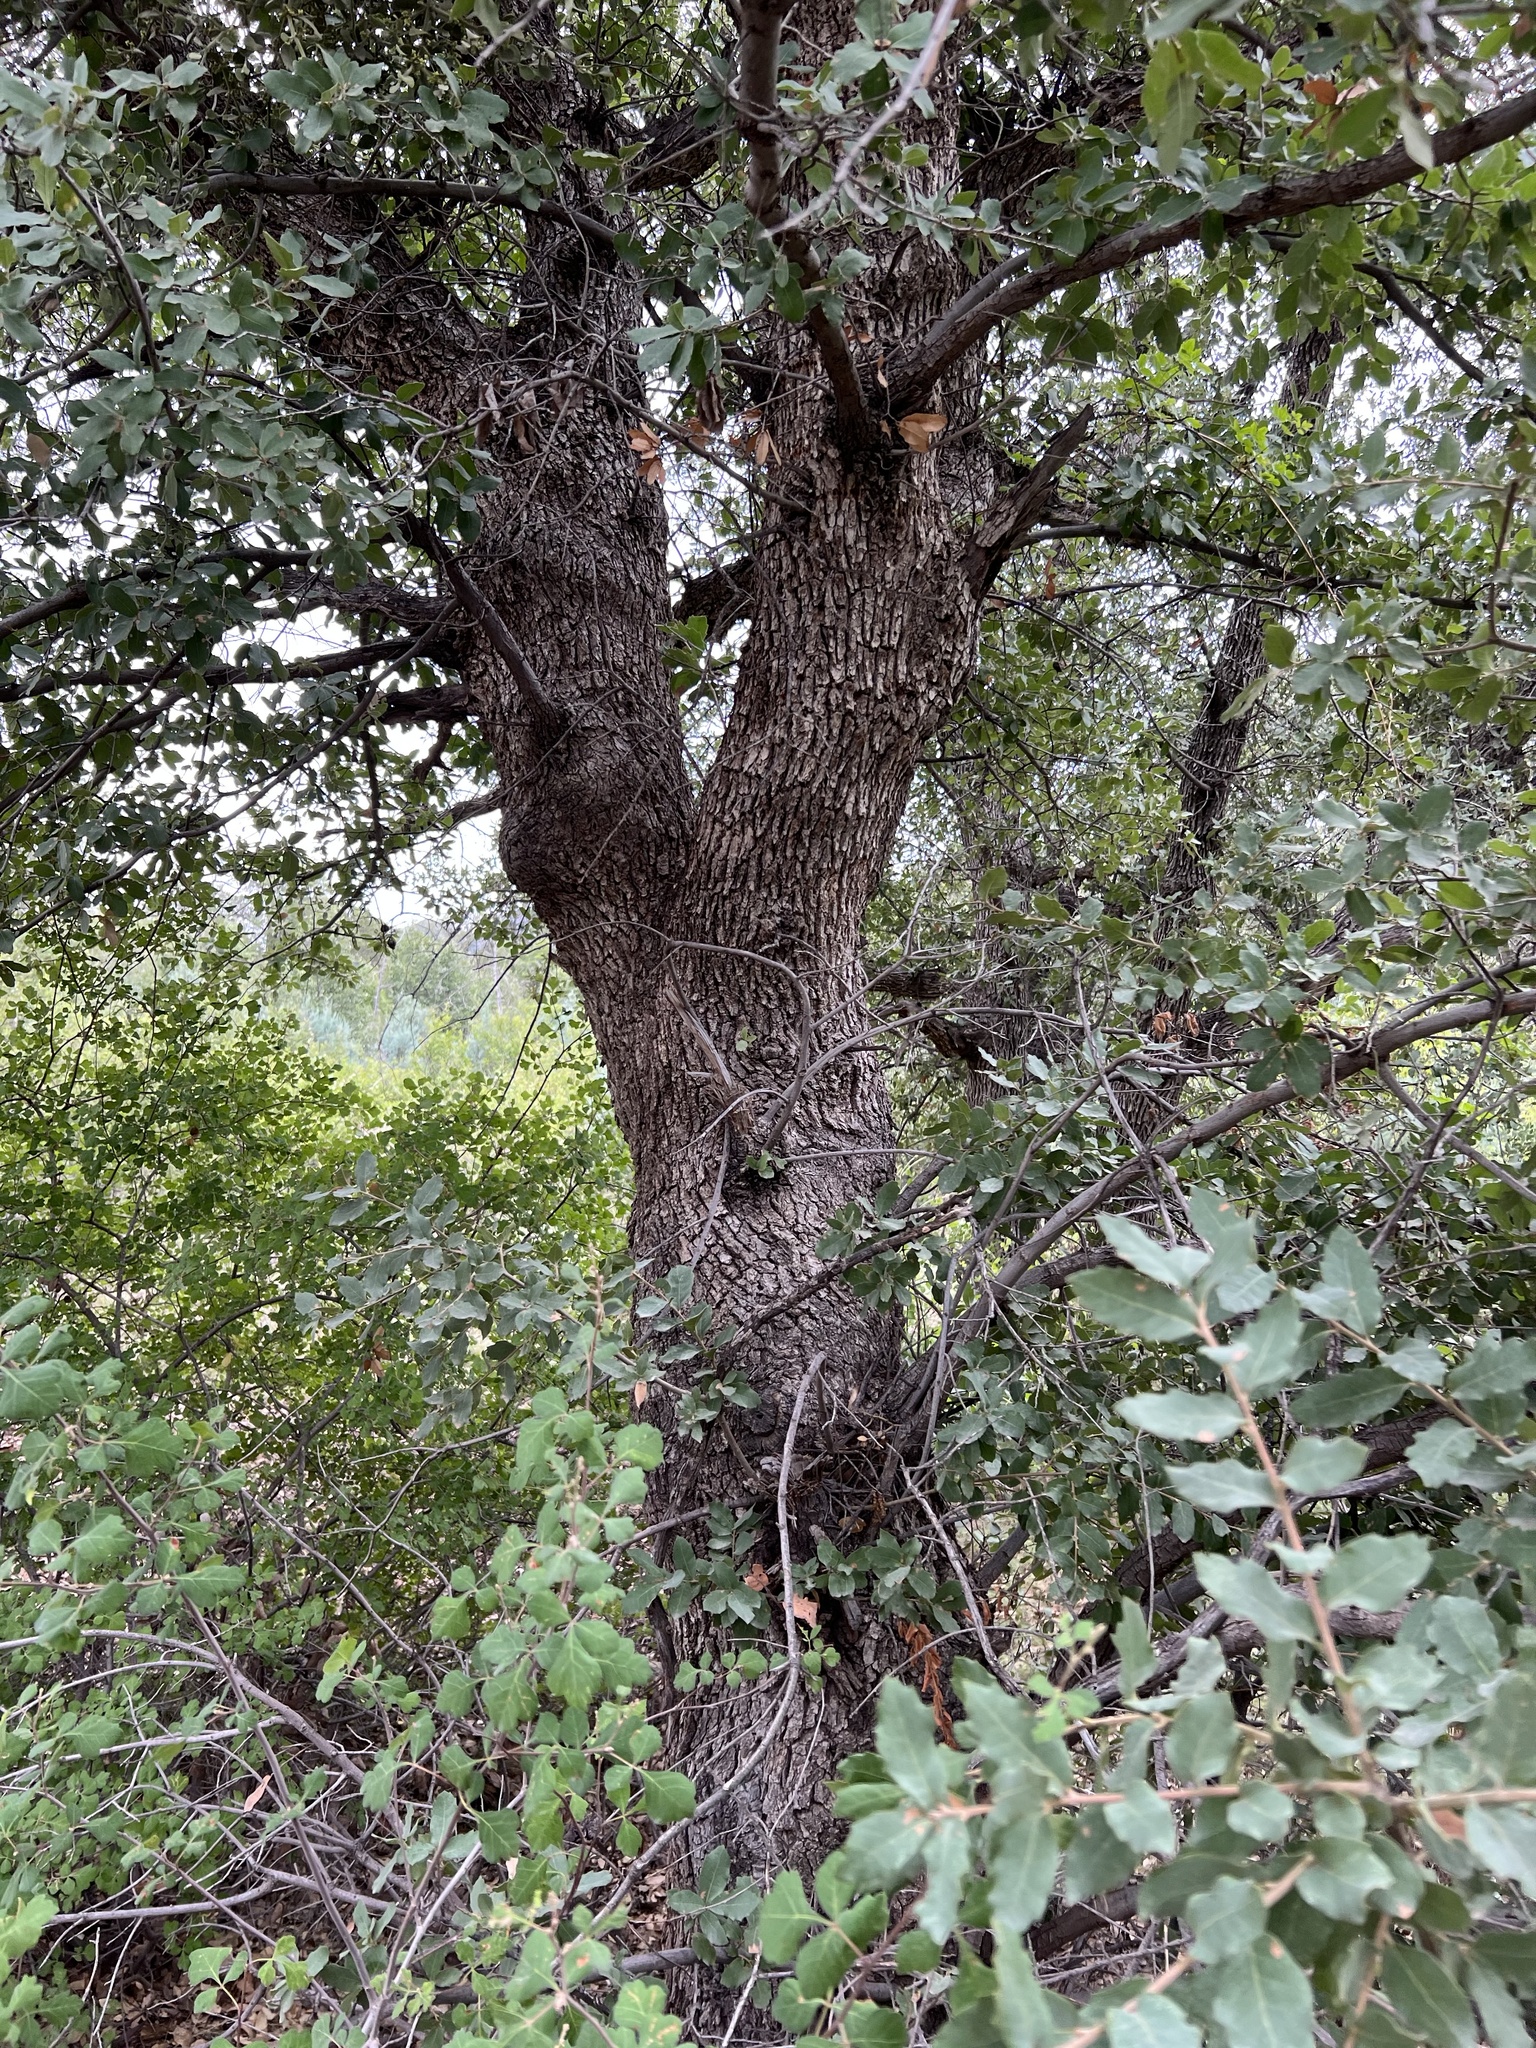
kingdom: Plantae
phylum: Tracheophyta
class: Magnoliopsida
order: Fagales
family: Fagaceae
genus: Quercus
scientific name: Quercus arizonica
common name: Arizona white oak
